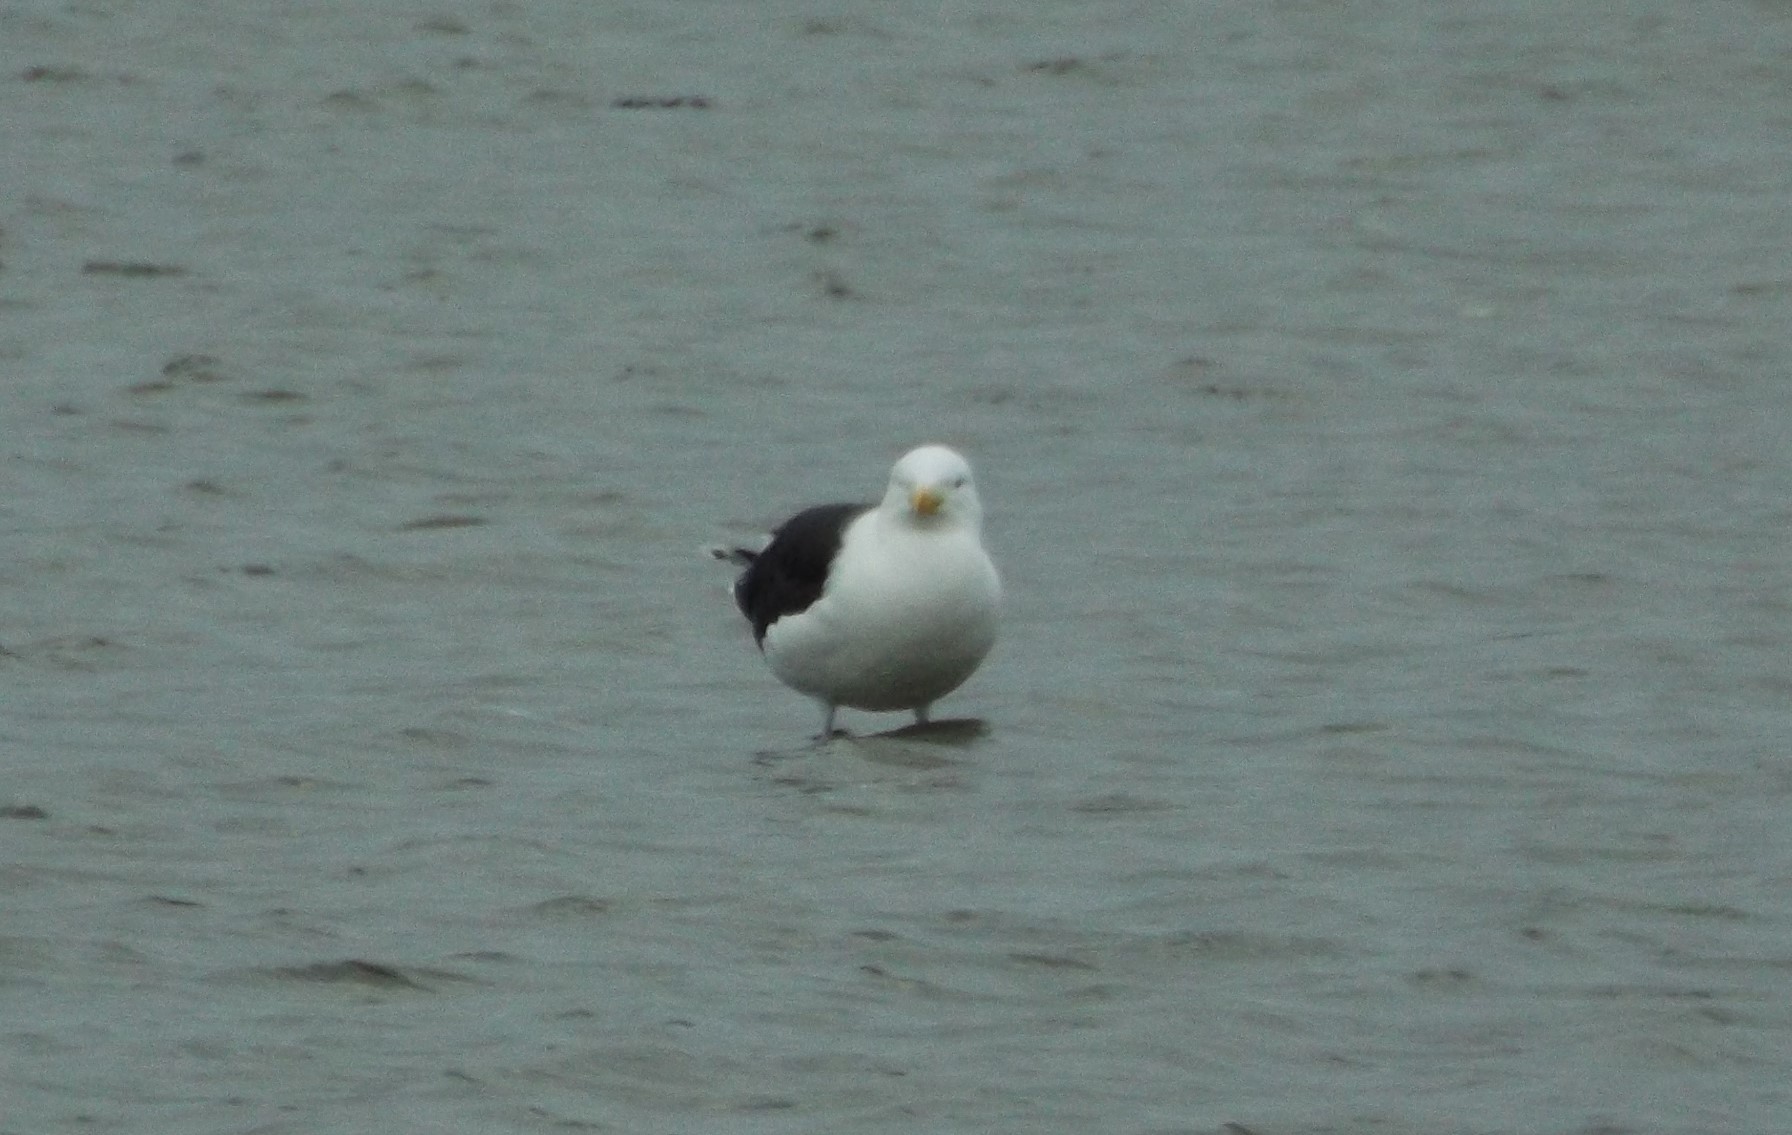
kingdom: Animalia
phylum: Chordata
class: Aves
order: Charadriiformes
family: Laridae
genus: Larus
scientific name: Larus marinus
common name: Great black-backed gull
